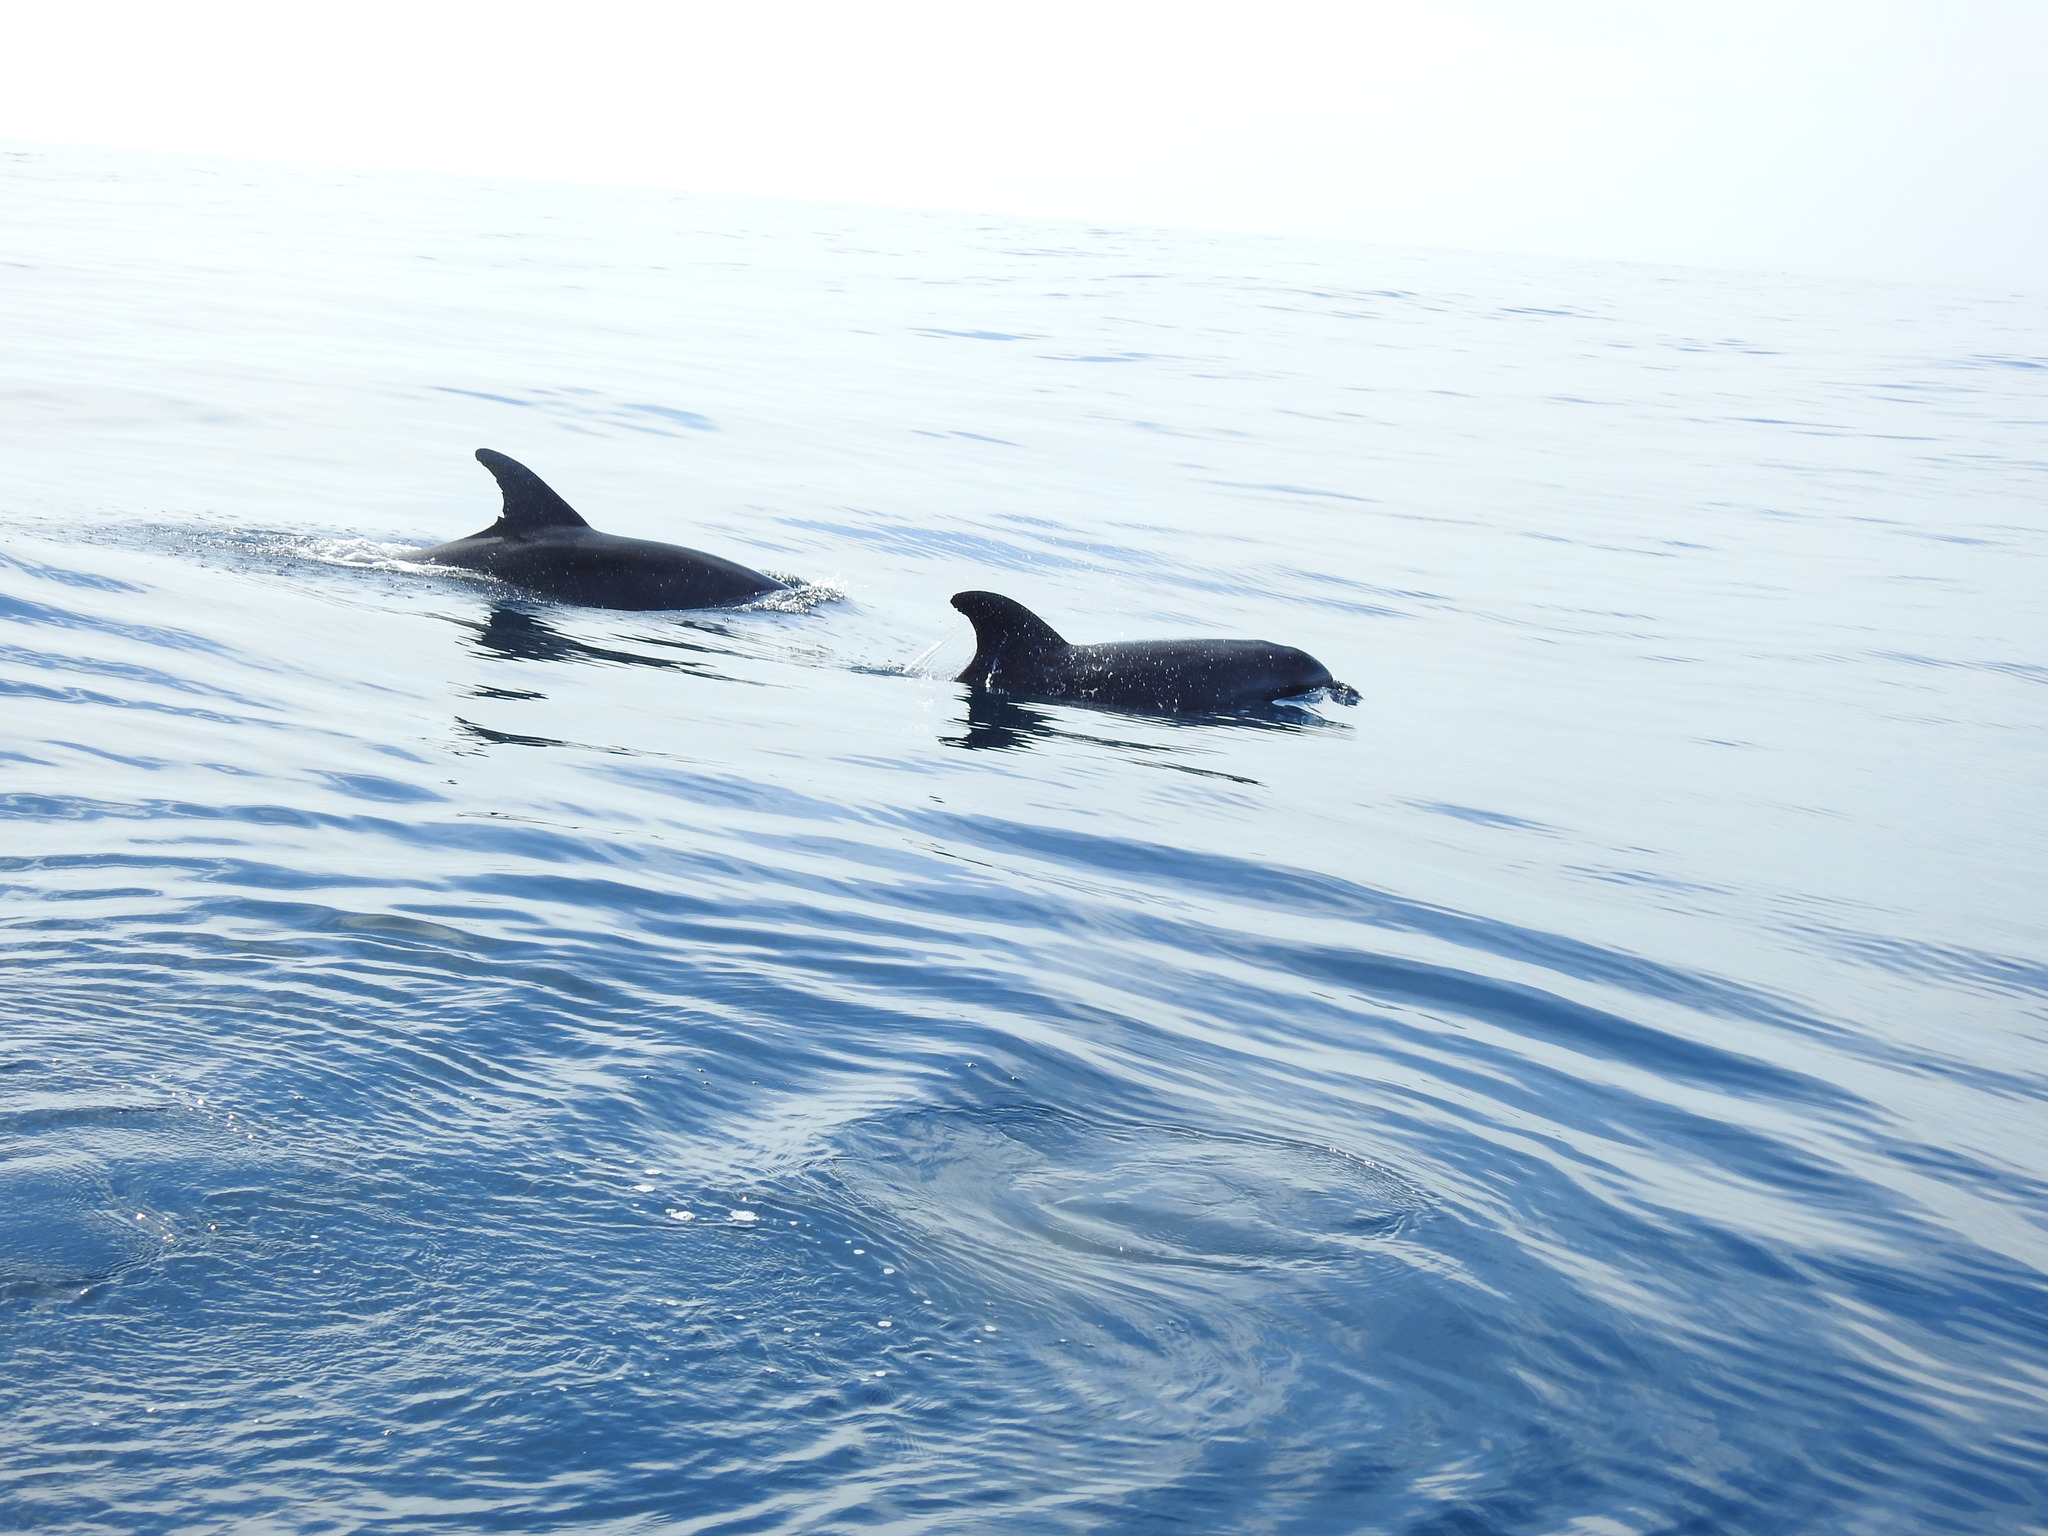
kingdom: Animalia
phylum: Chordata
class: Mammalia
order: Cetacea
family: Delphinidae
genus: Tursiops
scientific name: Tursiops truncatus
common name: Bottlenose dolphin
